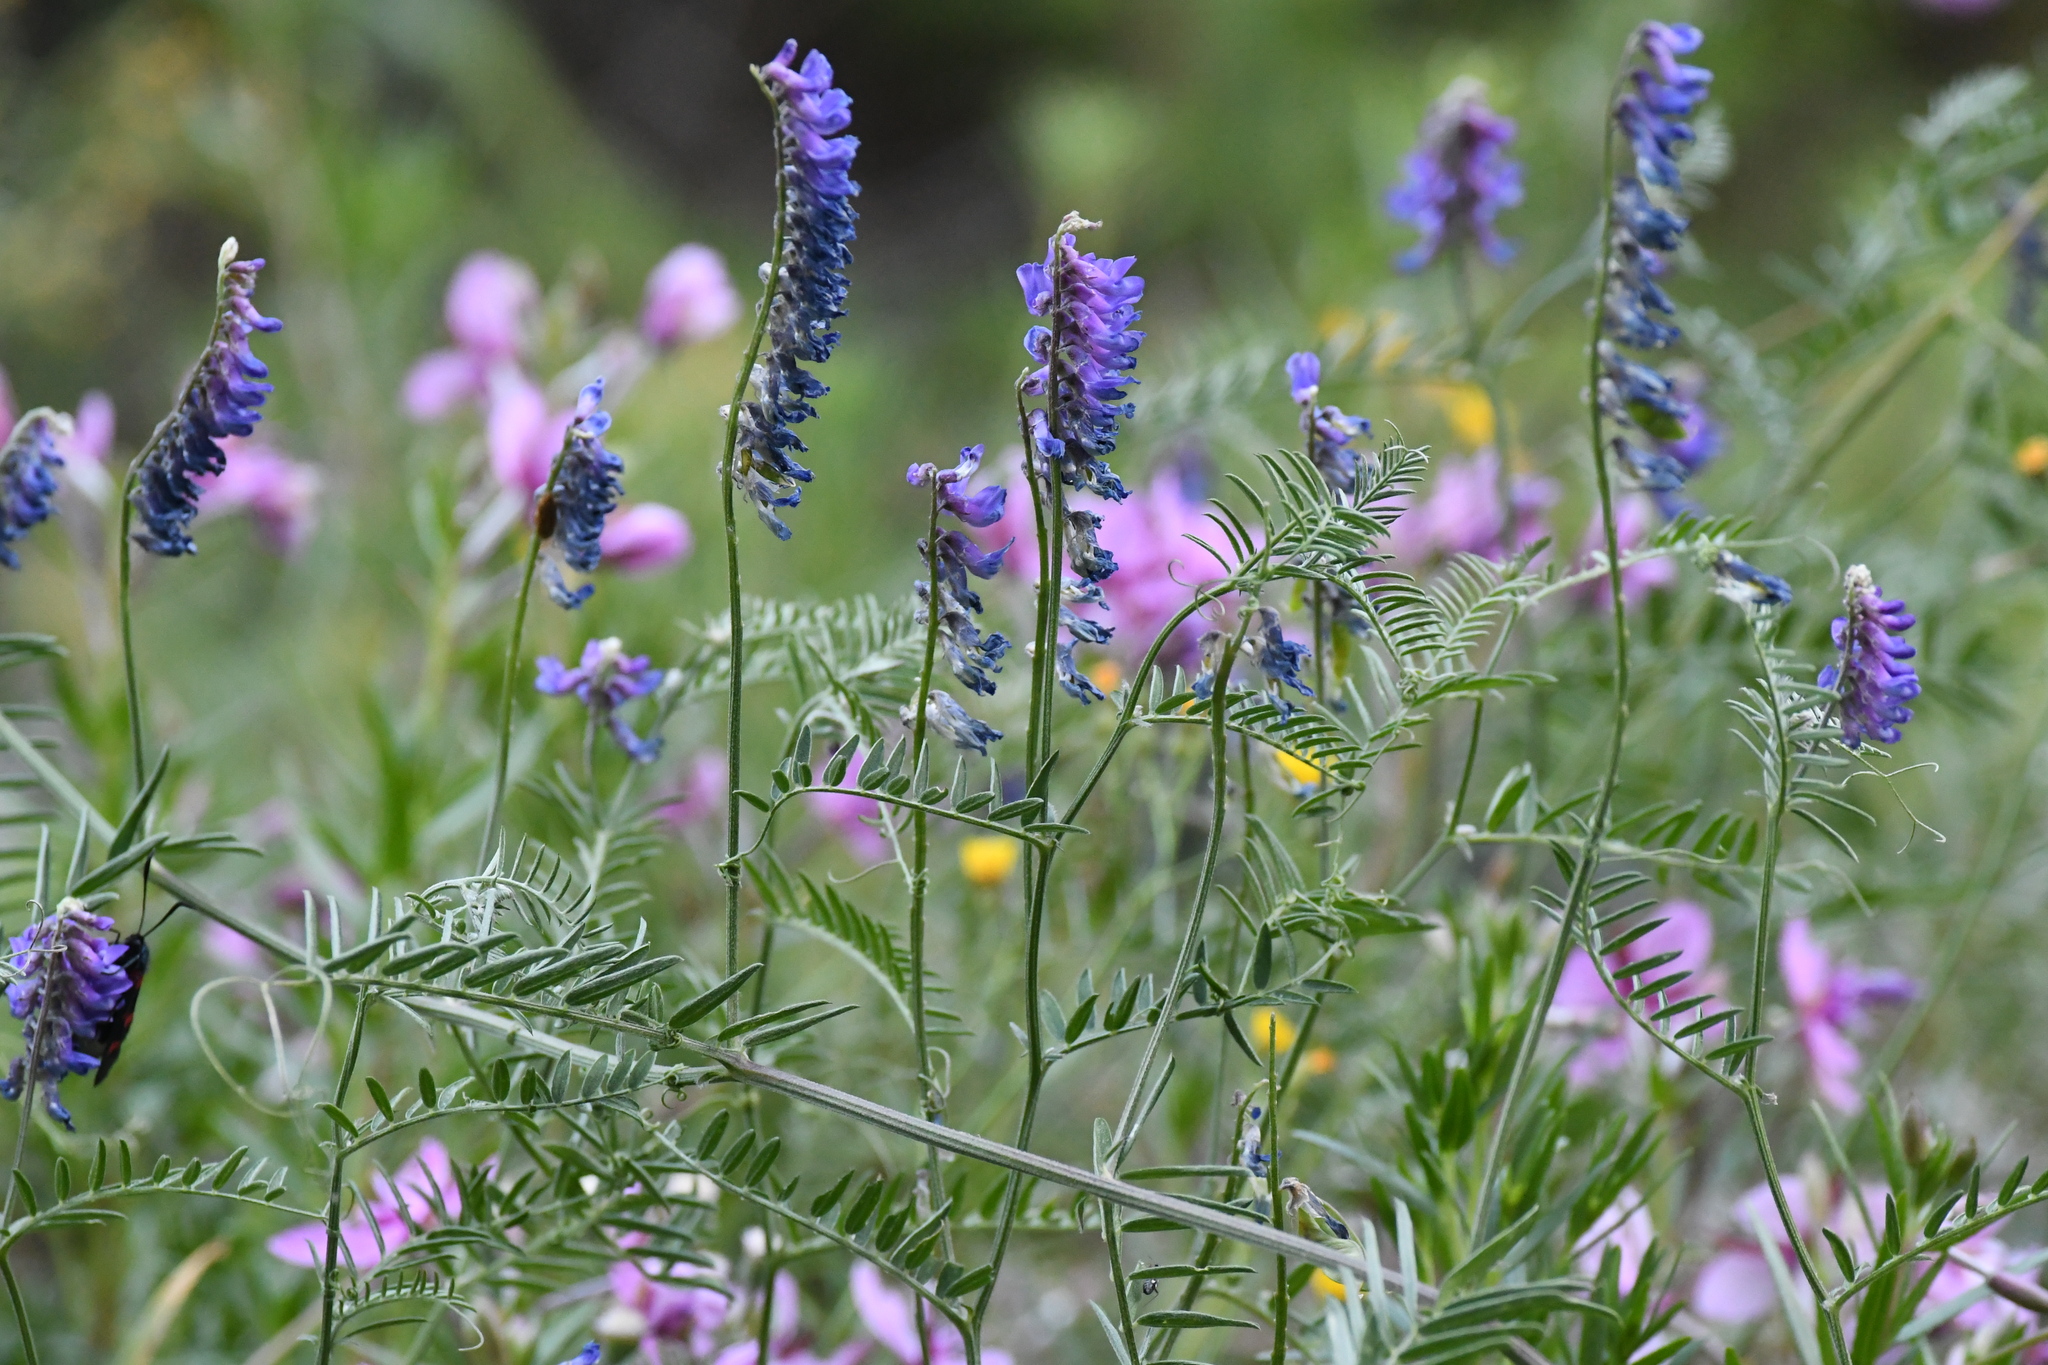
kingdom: Plantae
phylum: Tracheophyta
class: Magnoliopsida
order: Fabales
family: Fabaceae
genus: Vicia
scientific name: Vicia cracca
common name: Bird vetch
